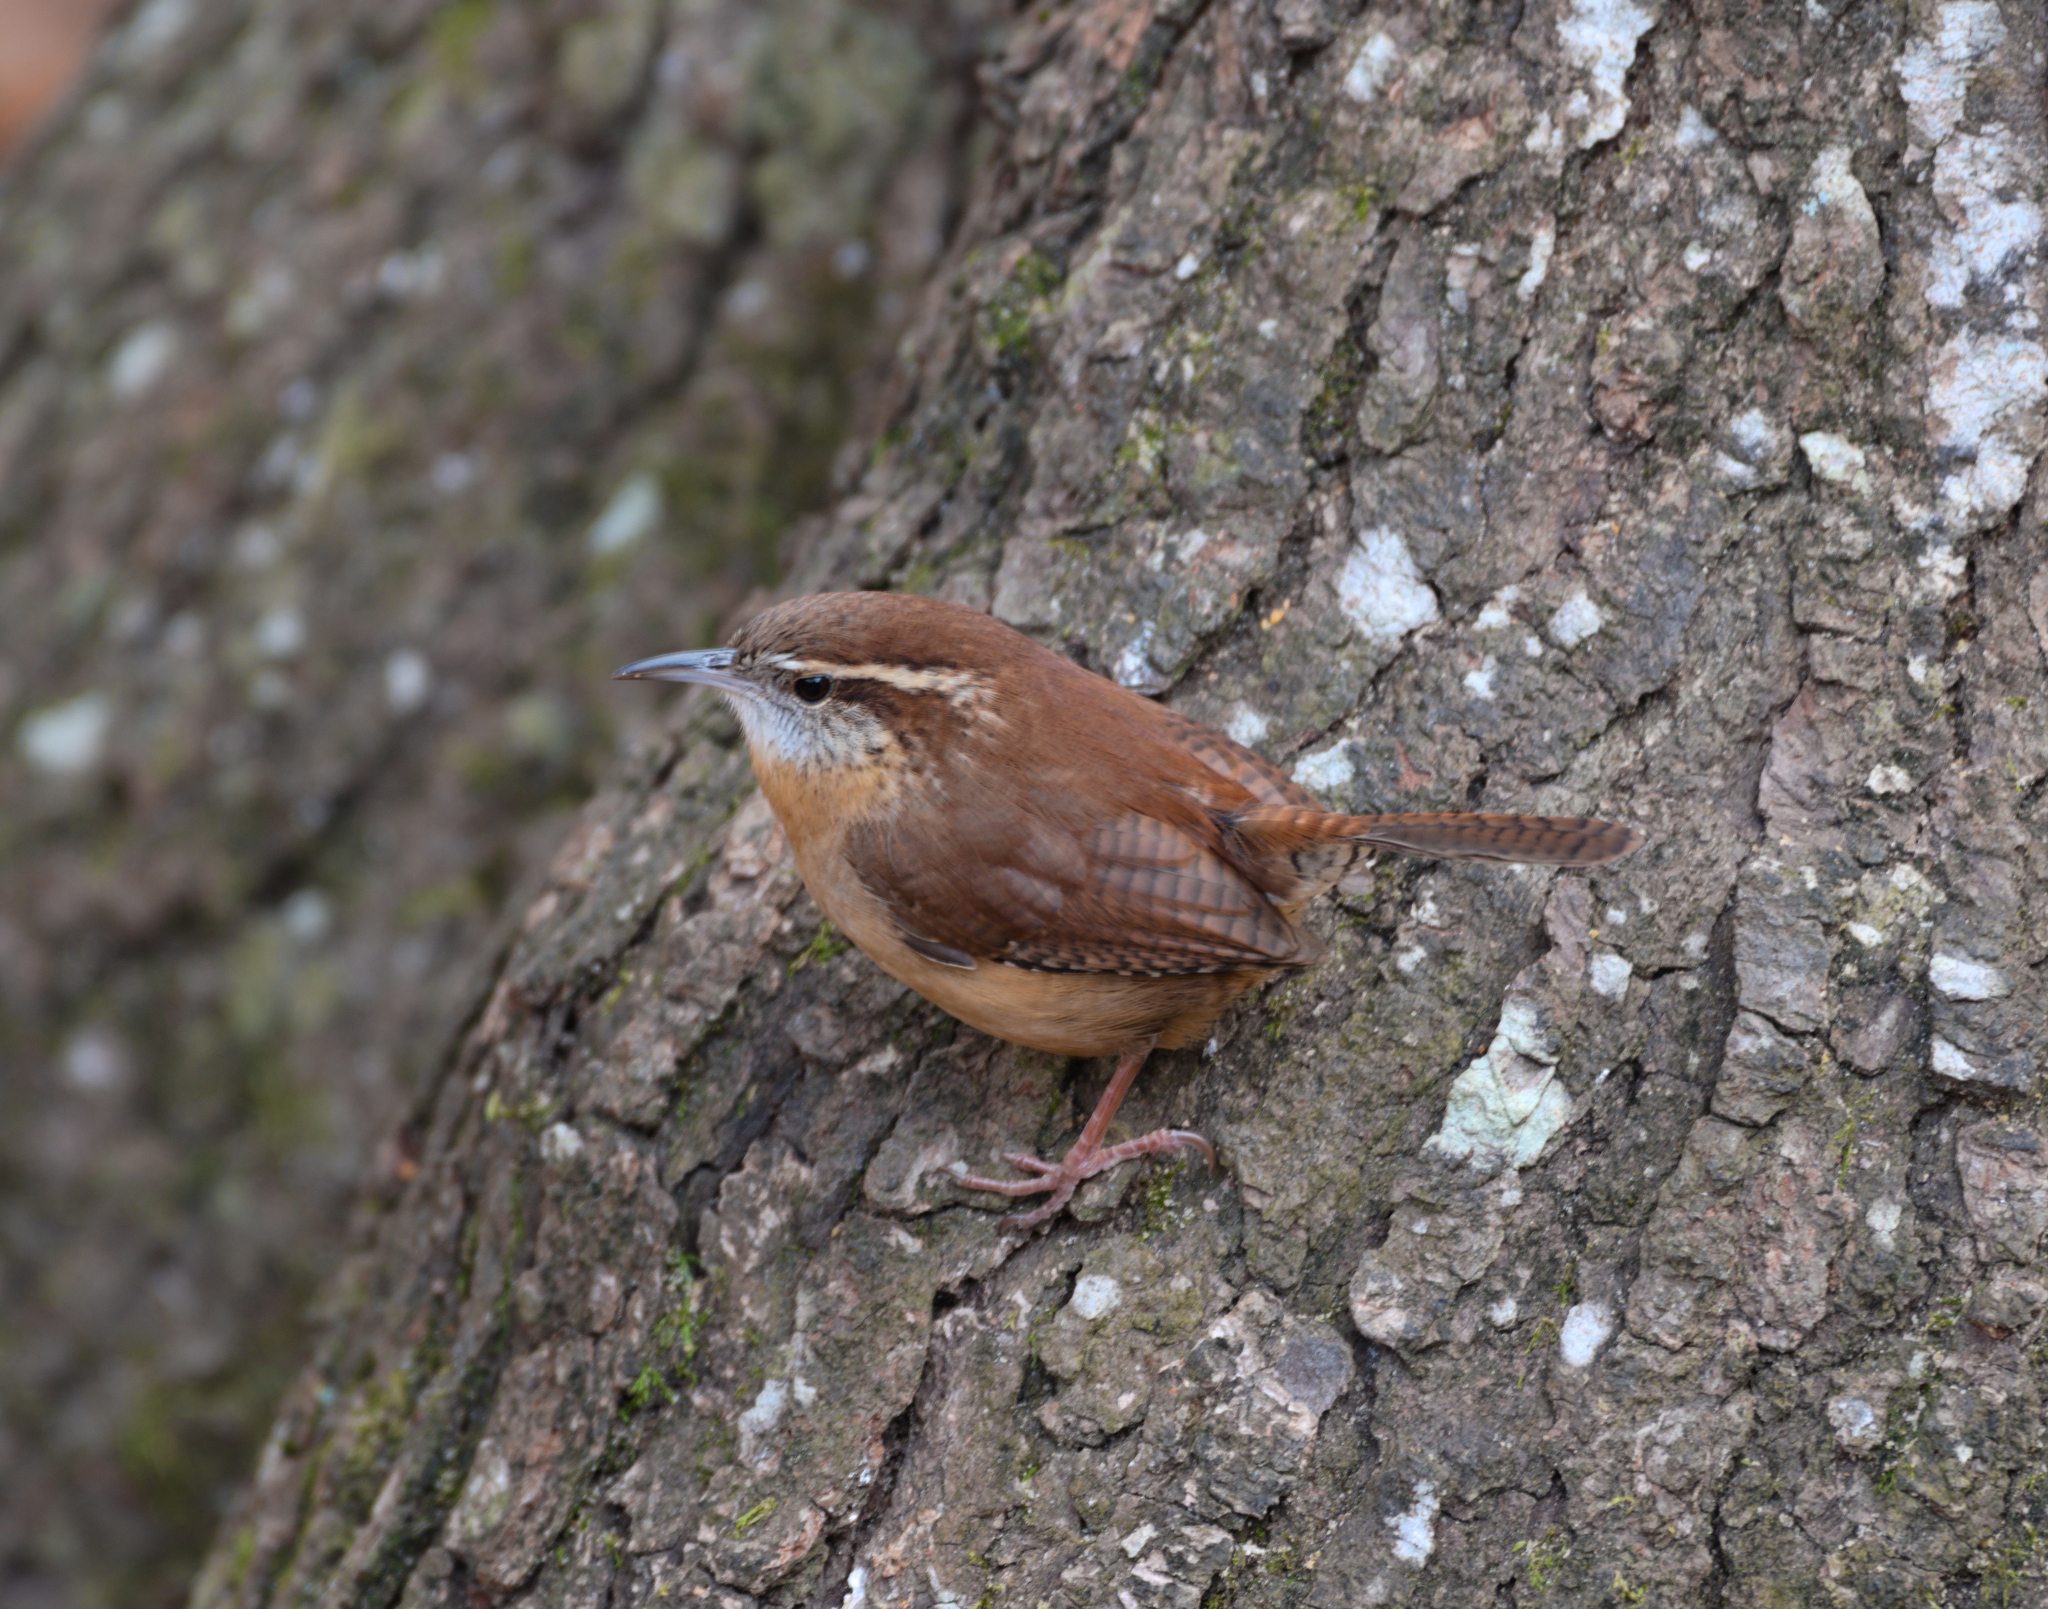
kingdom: Animalia
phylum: Chordata
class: Aves
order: Passeriformes
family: Troglodytidae
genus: Thryothorus
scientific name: Thryothorus ludovicianus
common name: Carolina wren
